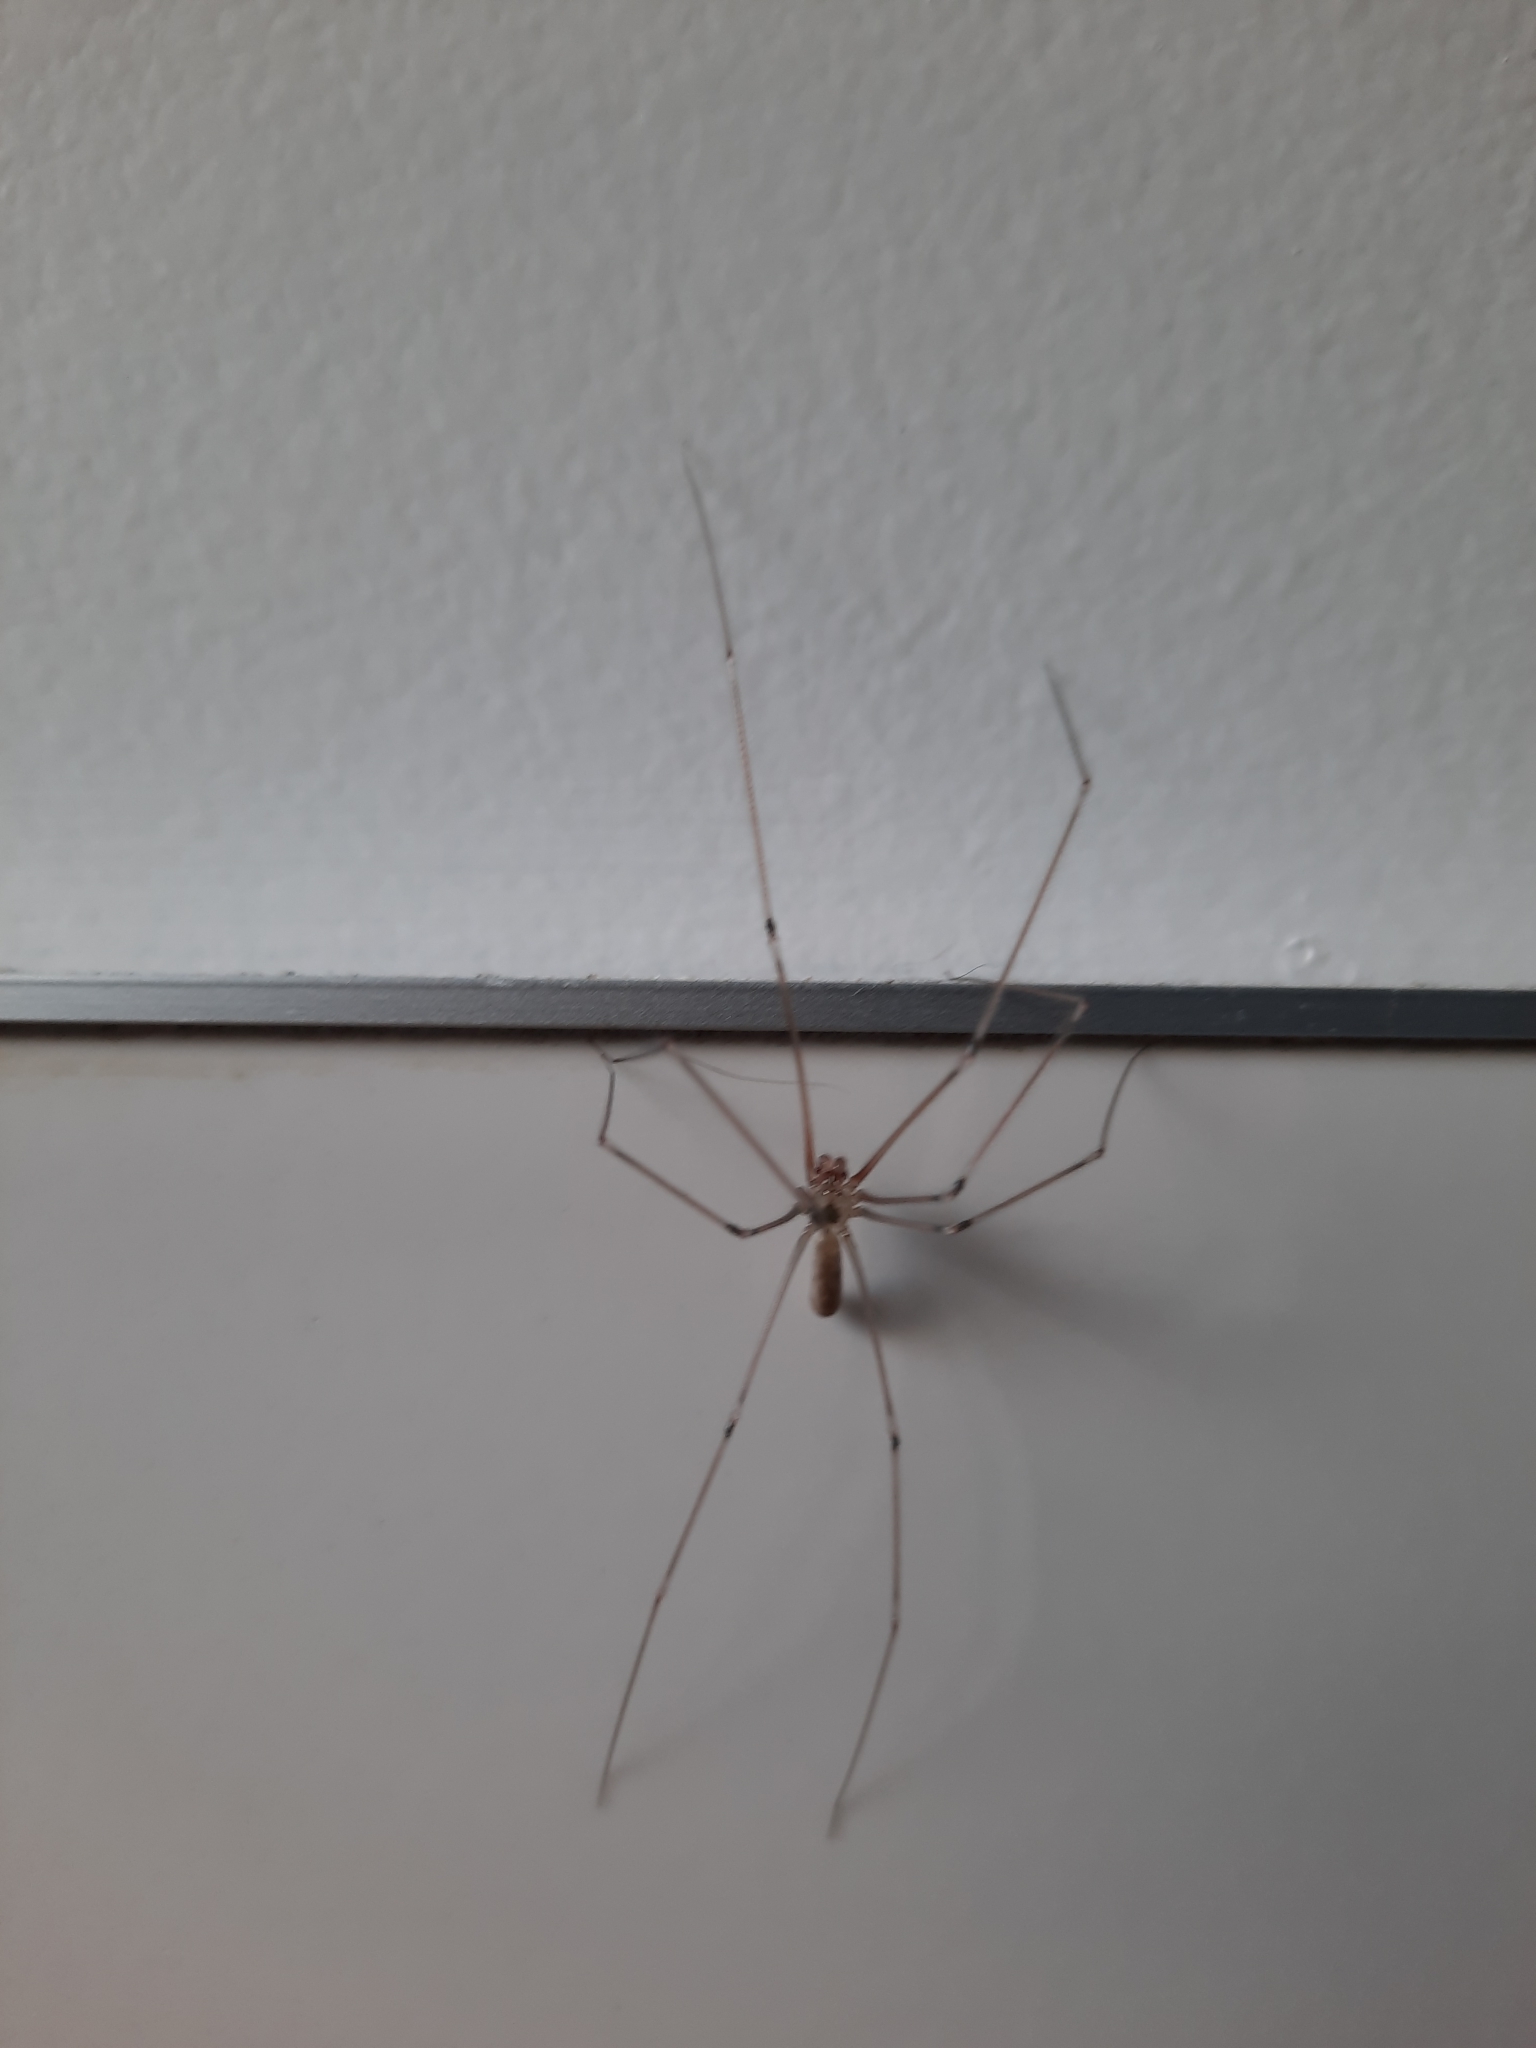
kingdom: Animalia
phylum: Arthropoda
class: Arachnida
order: Araneae
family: Pholcidae
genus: Pholcus
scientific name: Pholcus phalangioides
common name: Longbodied cellar spider
